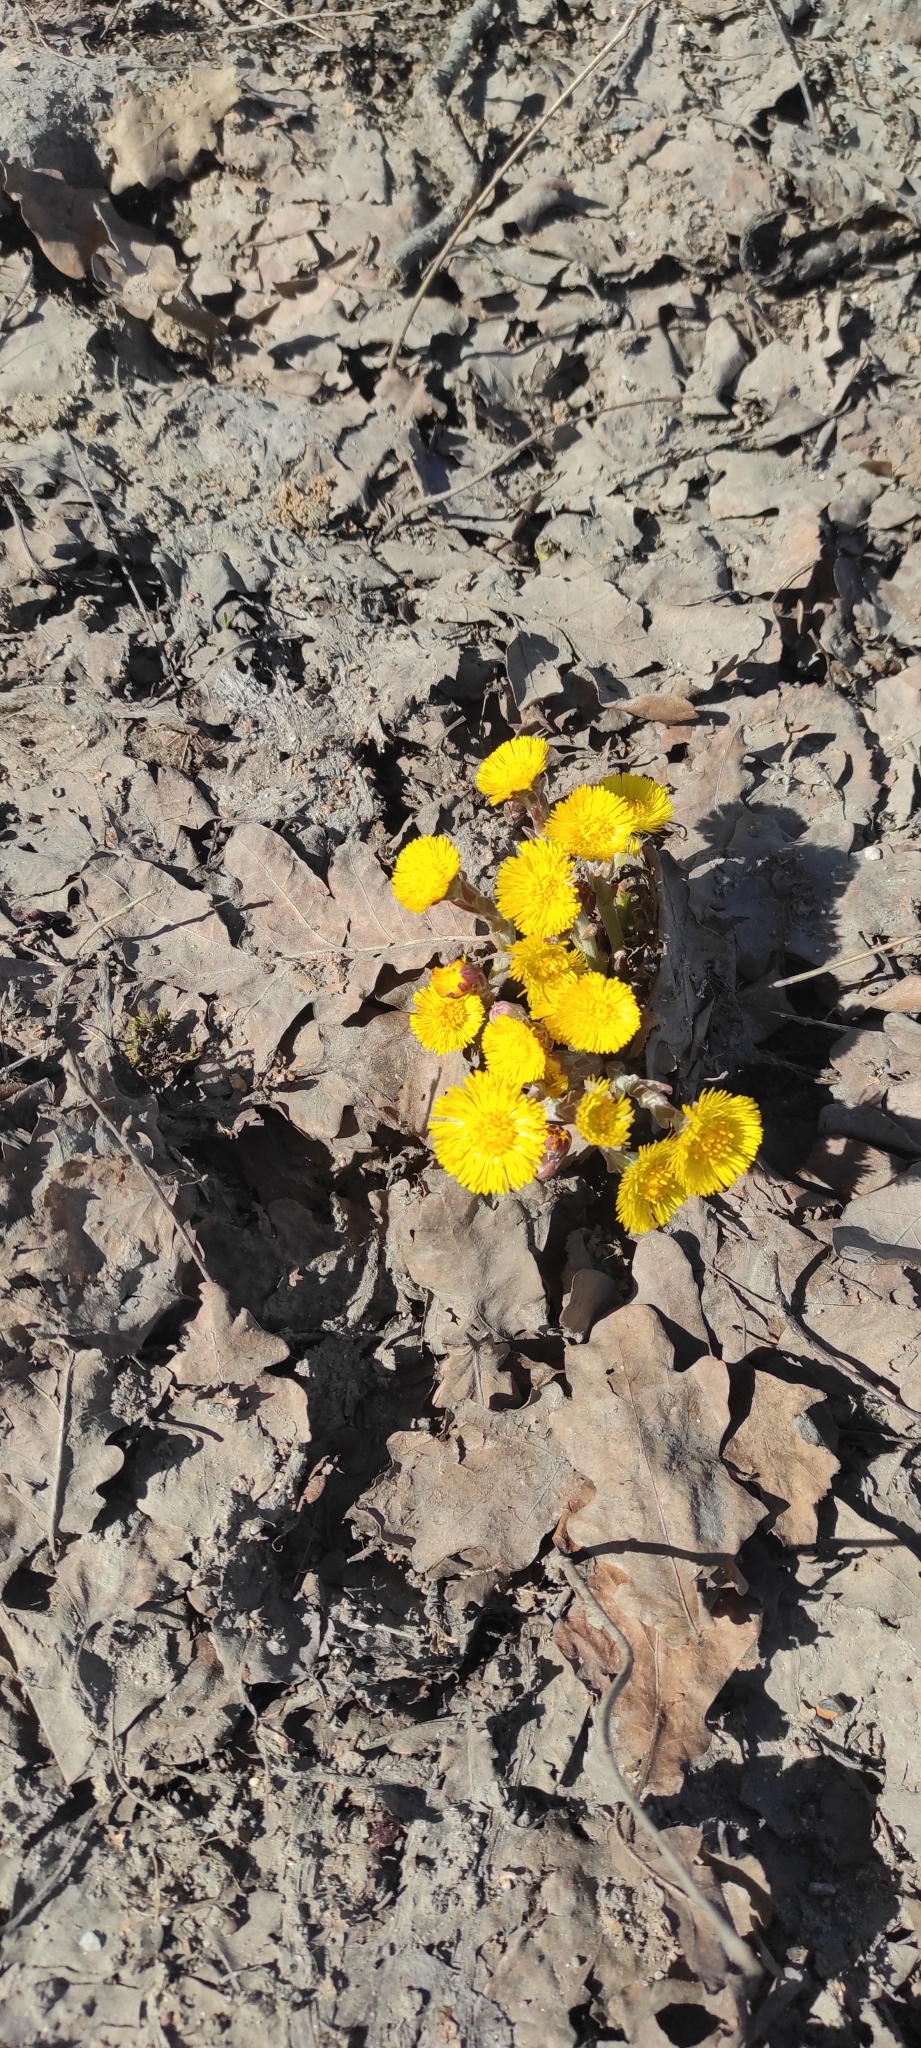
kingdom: Plantae
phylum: Tracheophyta
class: Magnoliopsida
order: Asterales
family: Asteraceae
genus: Tussilago
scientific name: Tussilago farfara
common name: Coltsfoot
